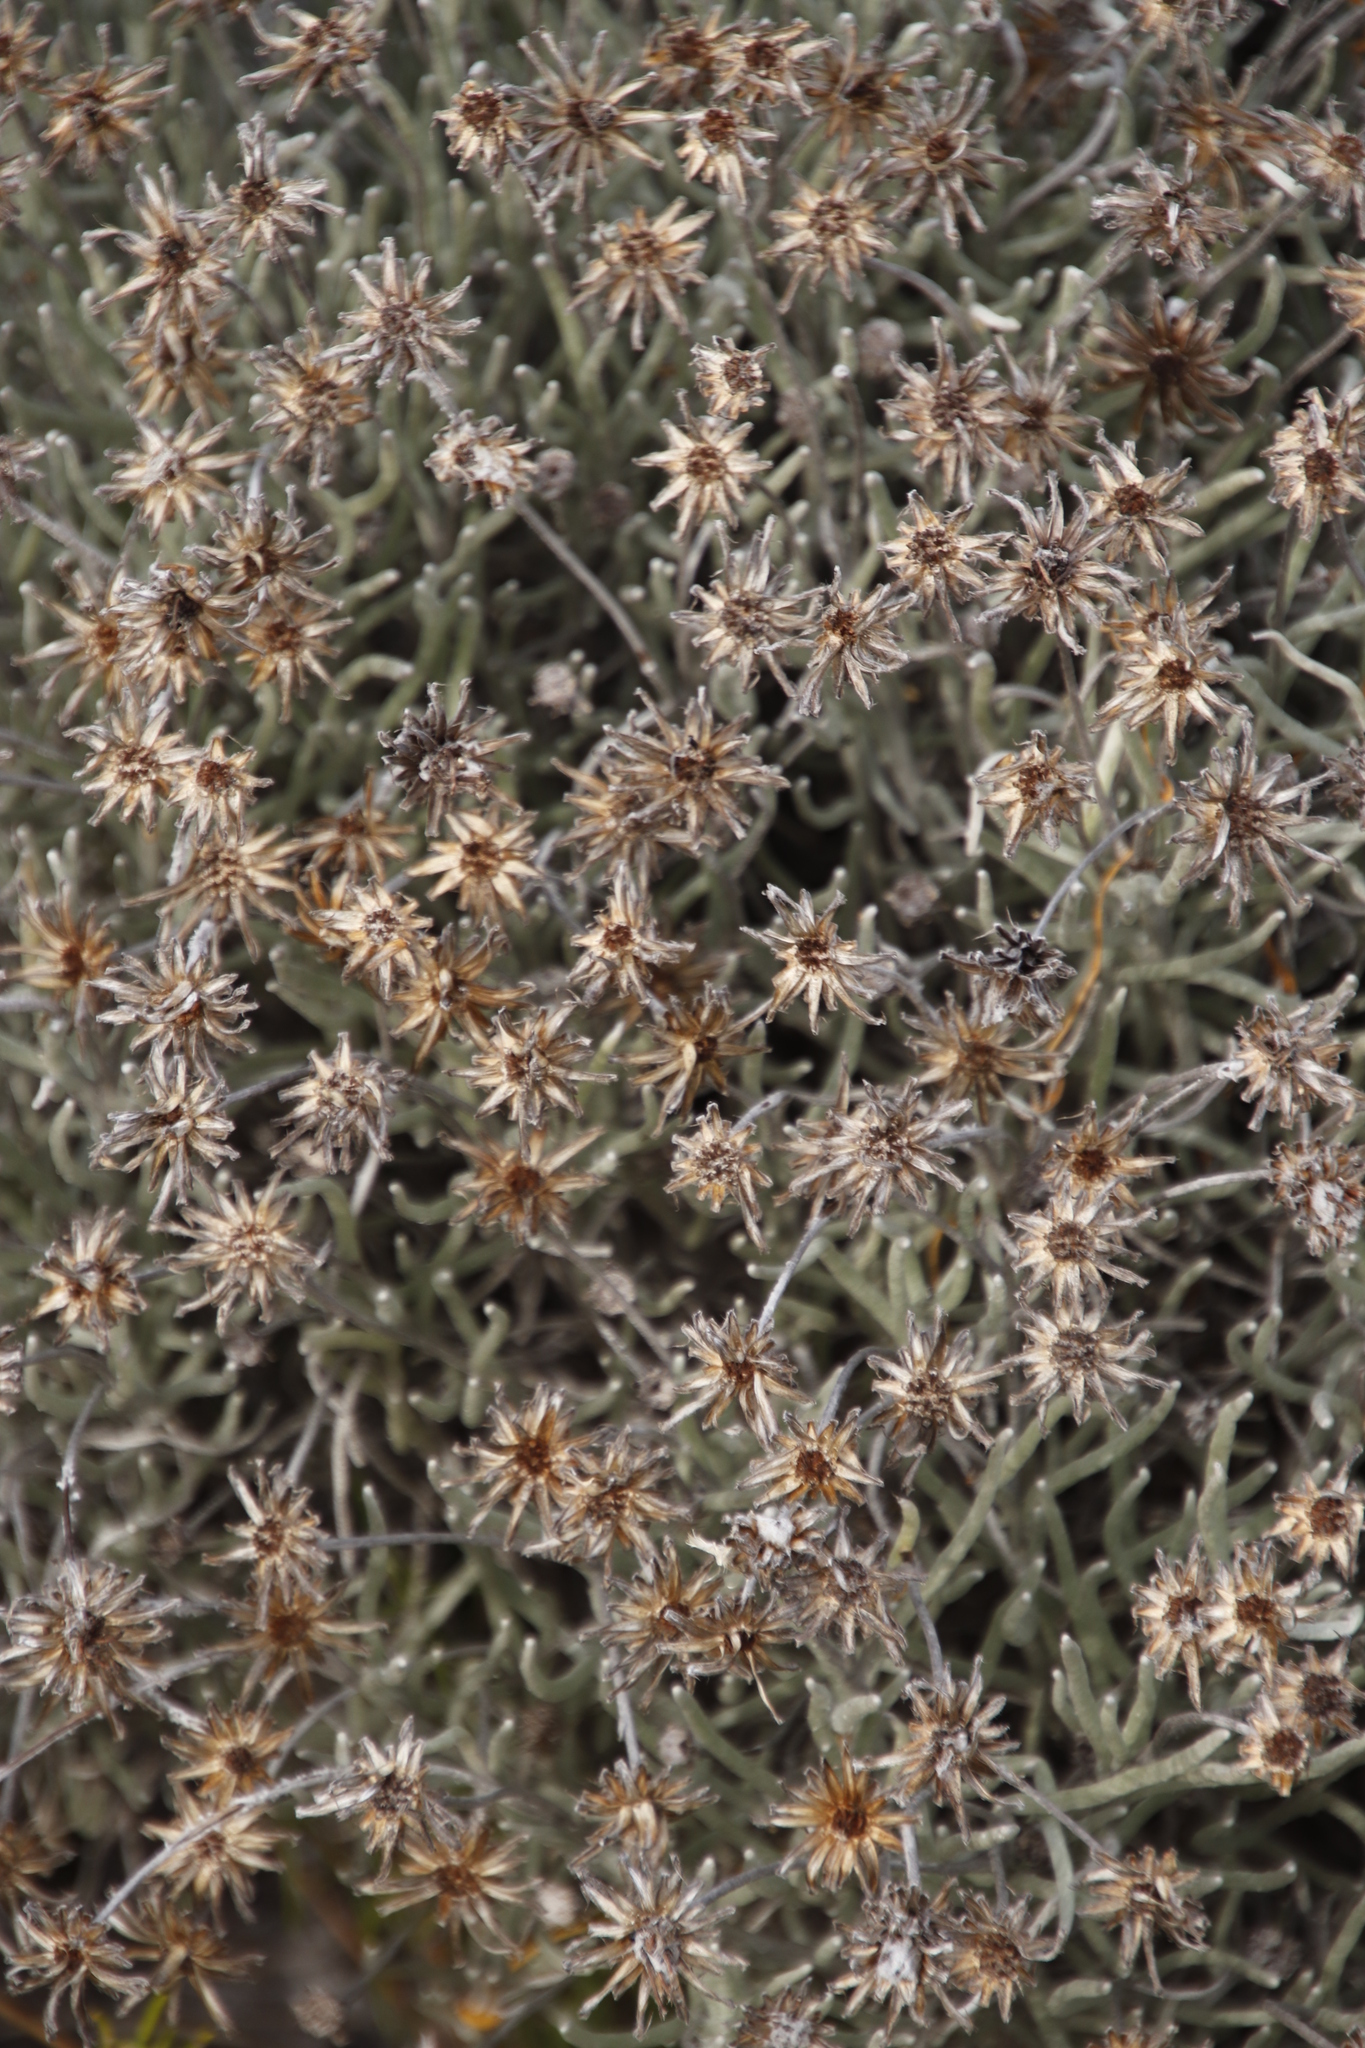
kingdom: Plantae
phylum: Tracheophyta
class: Magnoliopsida
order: Asterales
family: Asteraceae
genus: Syncarpha
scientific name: Syncarpha gnaphaloides
